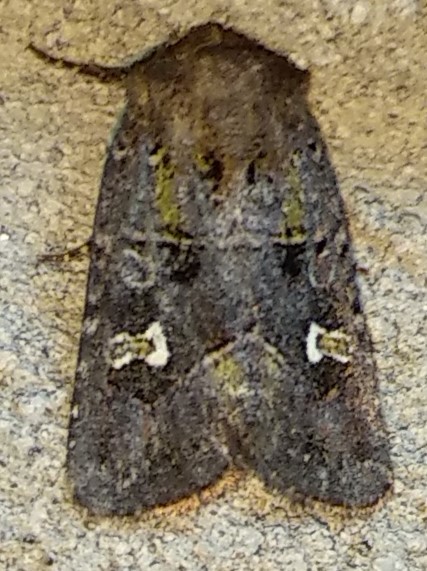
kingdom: Animalia
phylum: Arthropoda
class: Insecta
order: Lepidoptera
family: Noctuidae
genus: Lacinipolia
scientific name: Lacinipolia renigera
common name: Kidney-spotted minor
